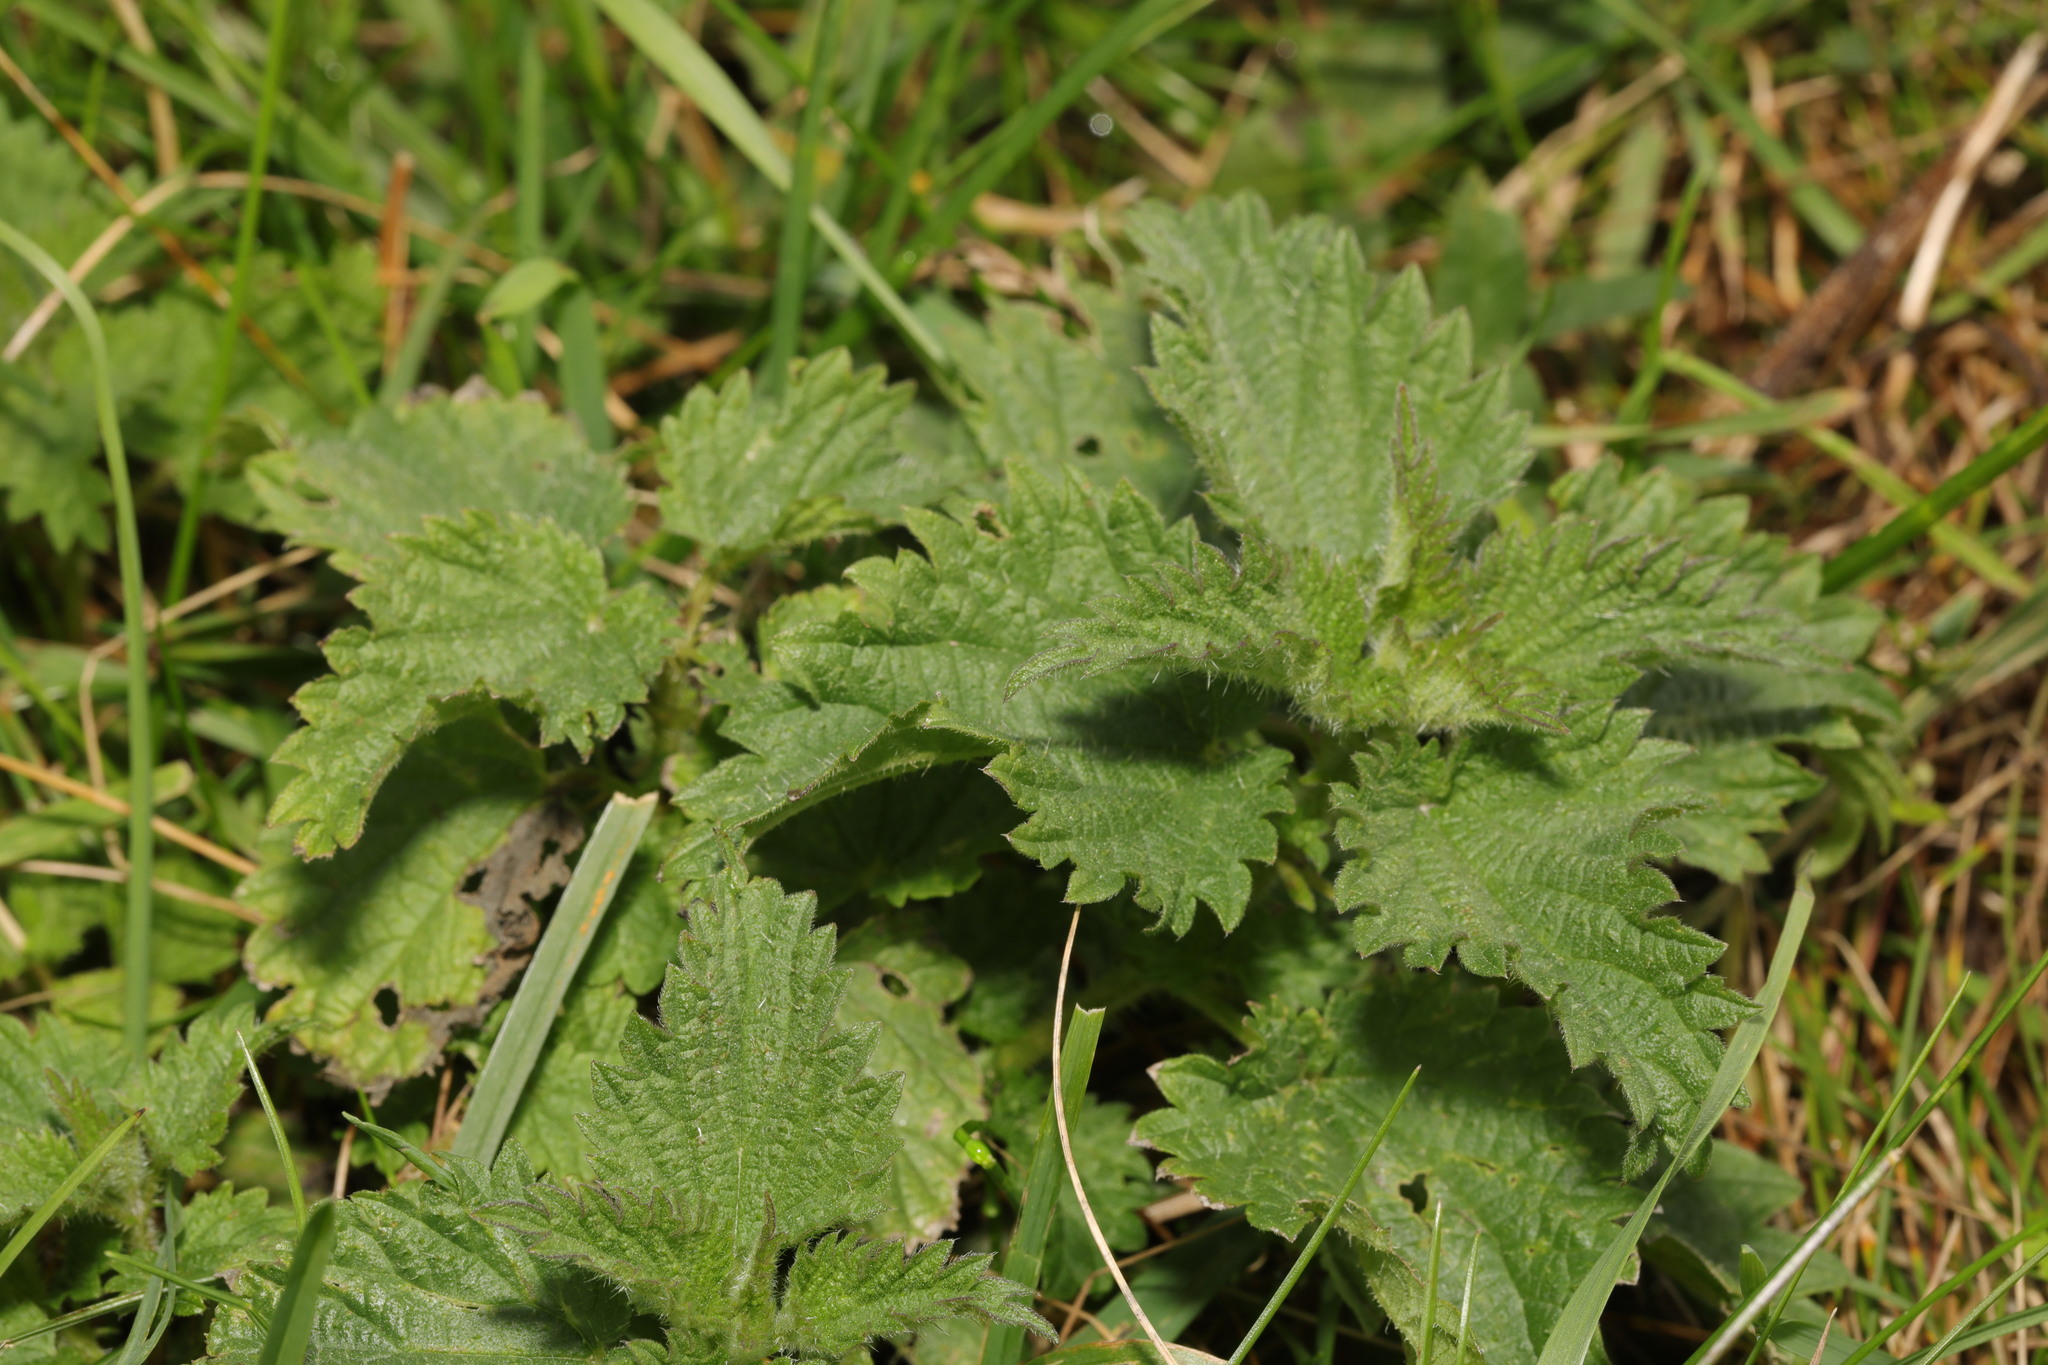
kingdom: Plantae
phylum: Tracheophyta
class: Magnoliopsida
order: Rosales
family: Urticaceae
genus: Urtica
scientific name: Urtica dioica
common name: Common nettle
